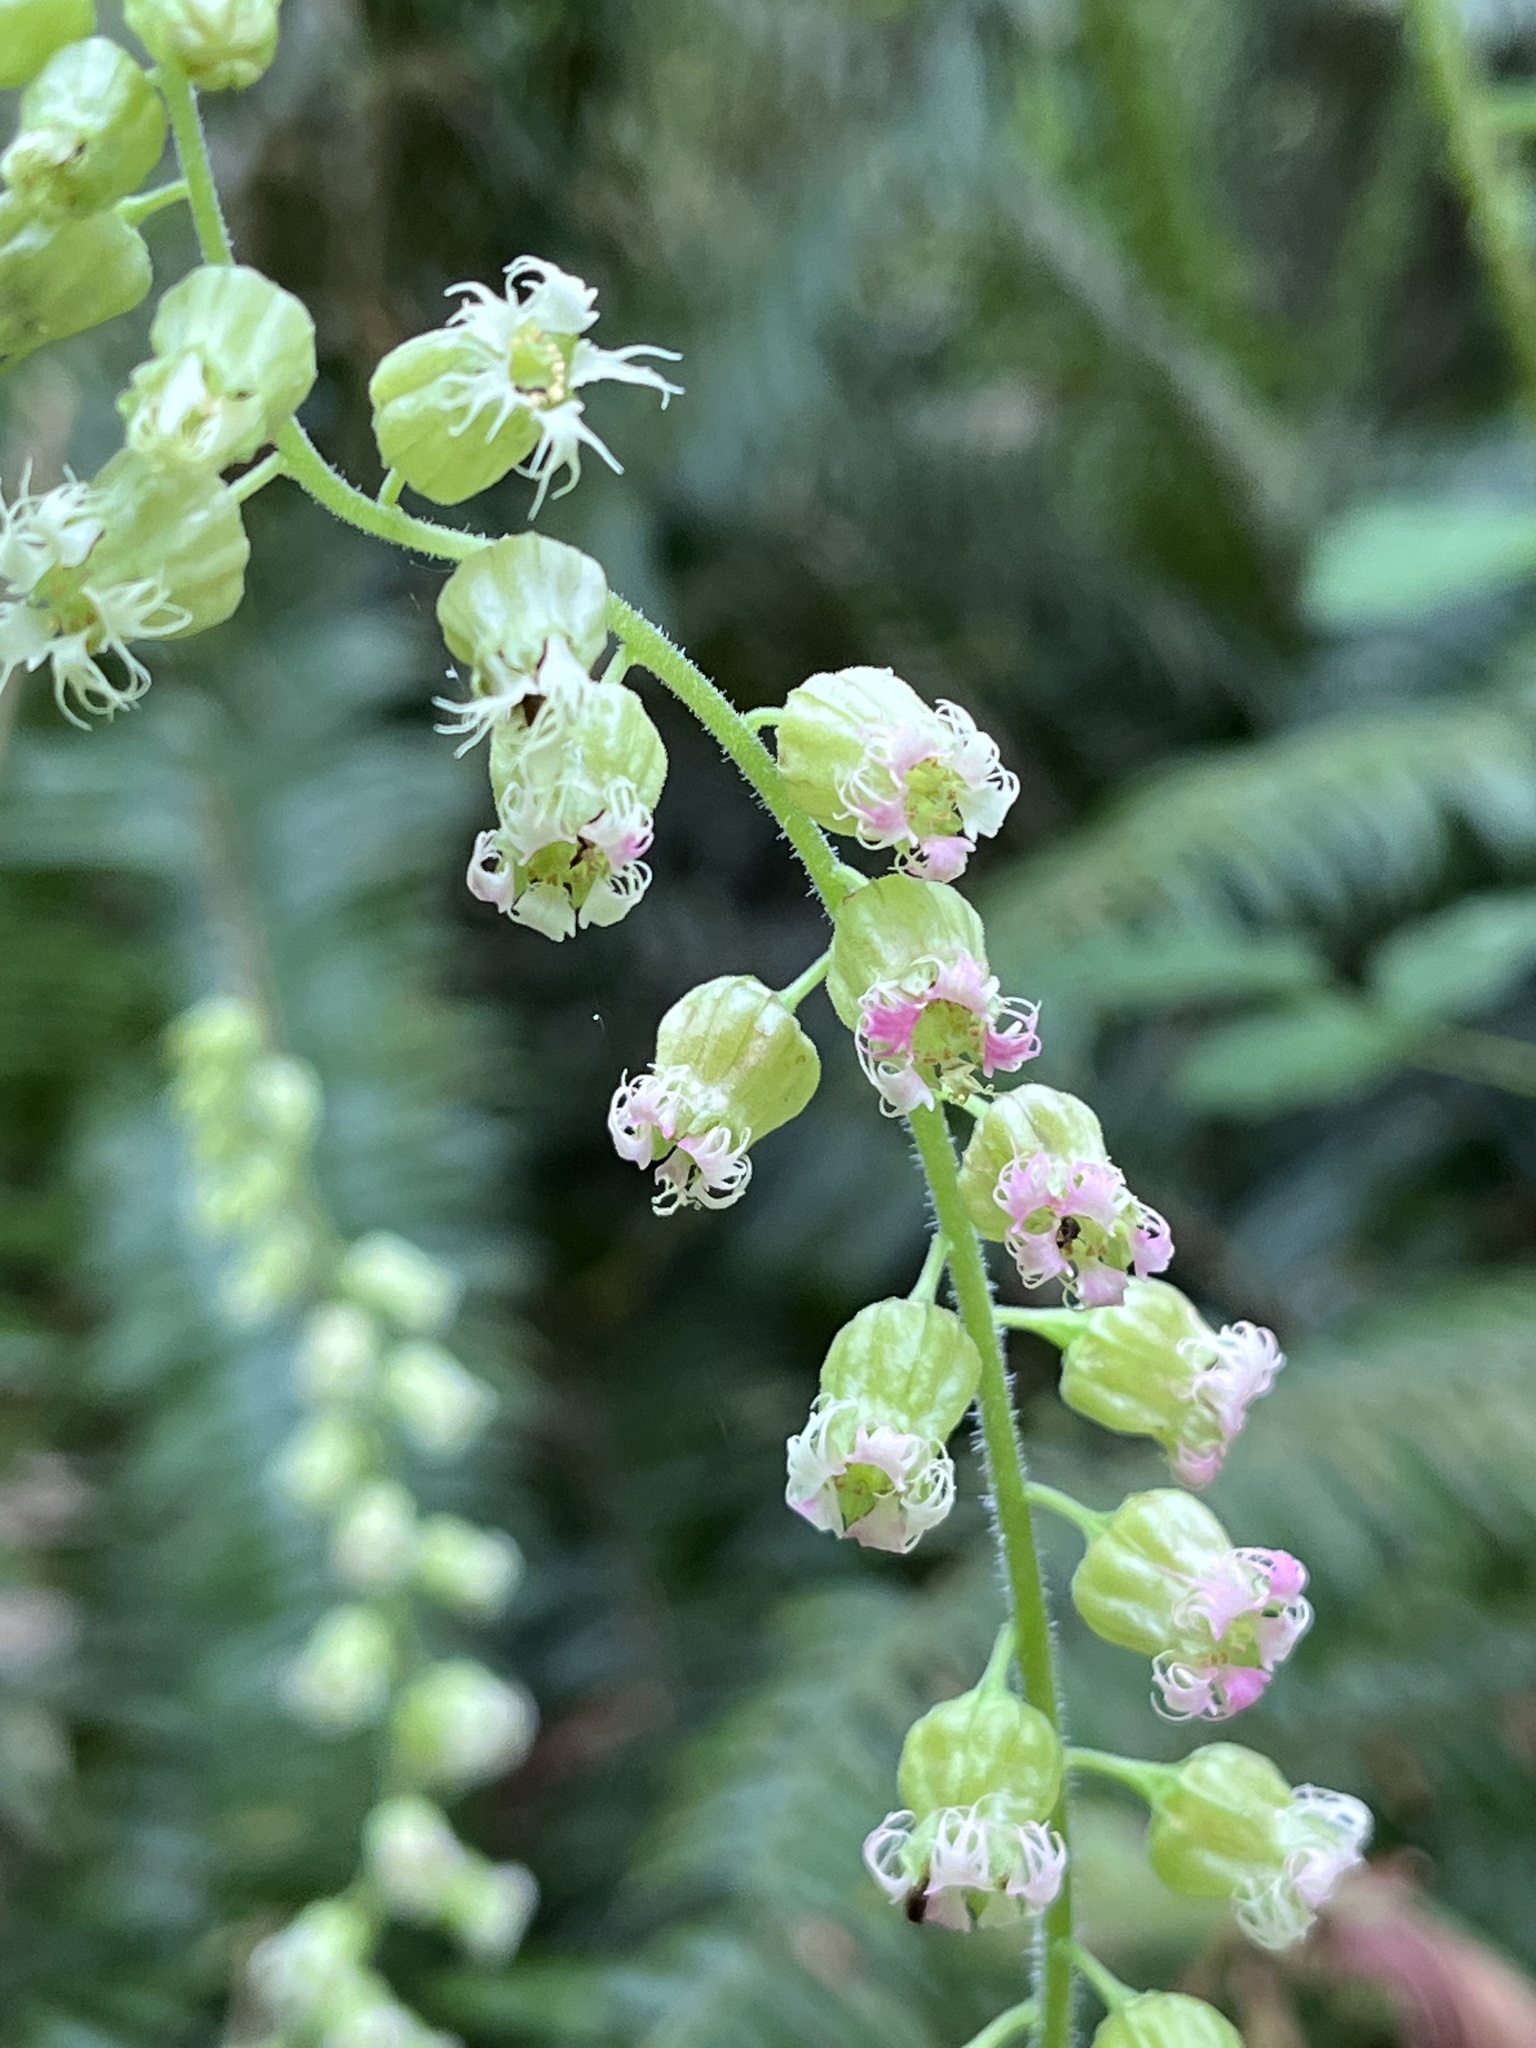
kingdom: Plantae
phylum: Tracheophyta
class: Magnoliopsida
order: Saxifragales
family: Saxifragaceae
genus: Tolmiea
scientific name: Tolmiea menziesii
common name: Pick-a-back-plant
